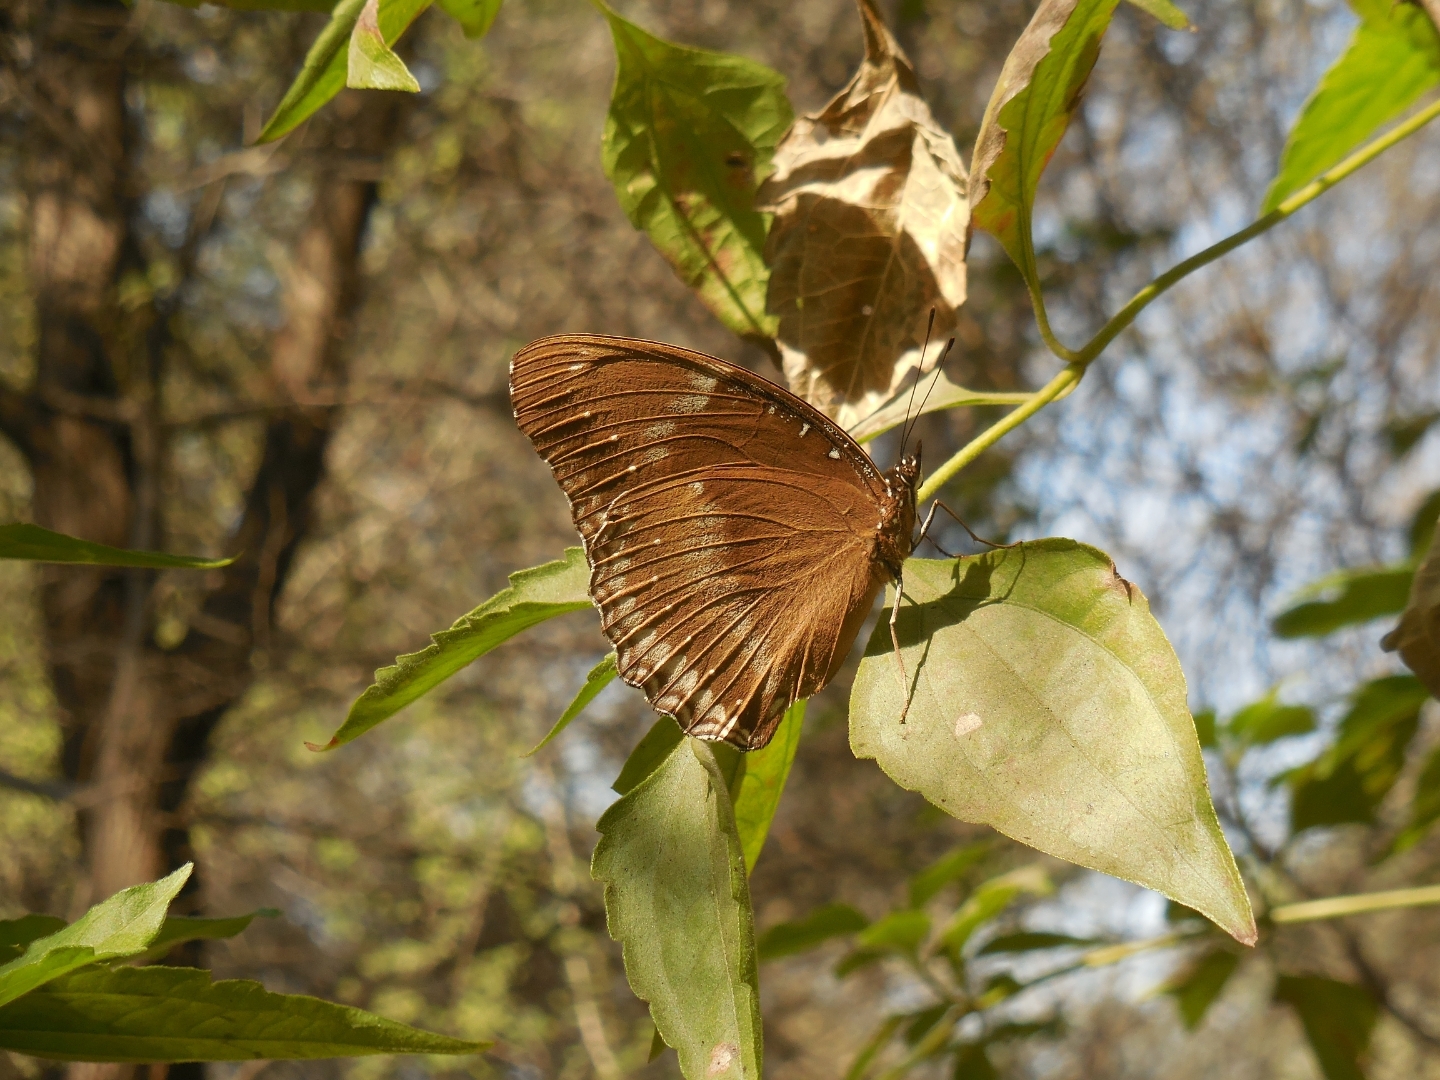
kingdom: Animalia
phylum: Arthropoda
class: Insecta
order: Lepidoptera
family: Nymphalidae
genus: Hypolimnas
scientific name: Hypolimnas bolina
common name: Great eggfly
